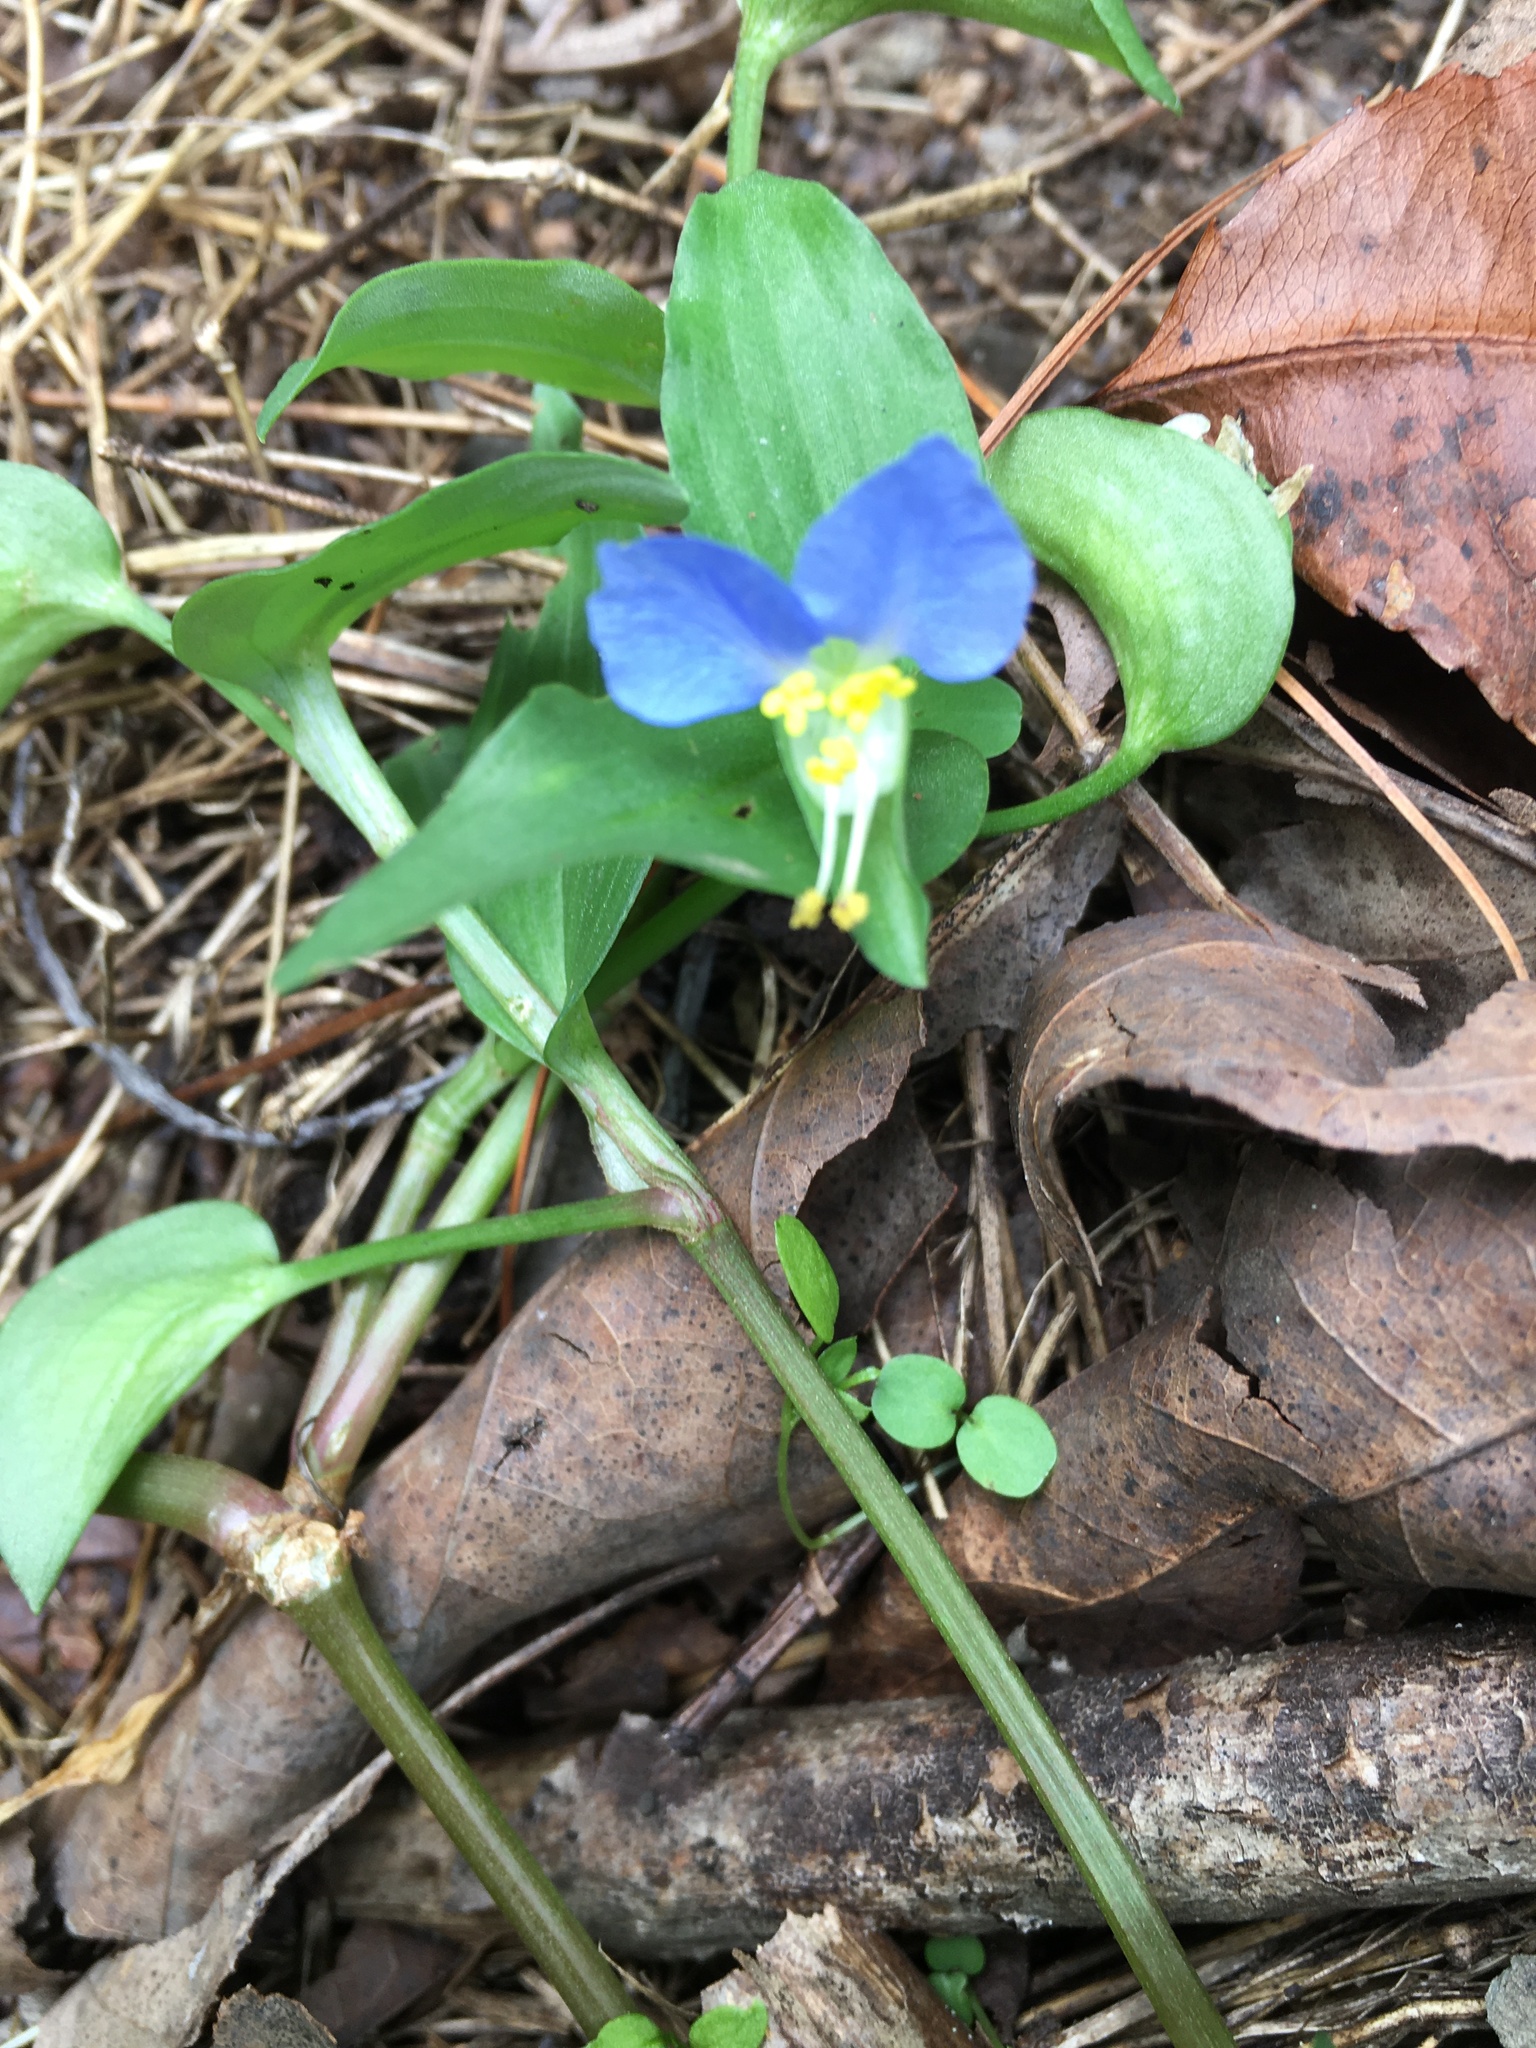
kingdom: Plantae
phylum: Tracheophyta
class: Liliopsida
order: Commelinales
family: Commelinaceae
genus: Commelina
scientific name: Commelina communis
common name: Asiatic dayflower
